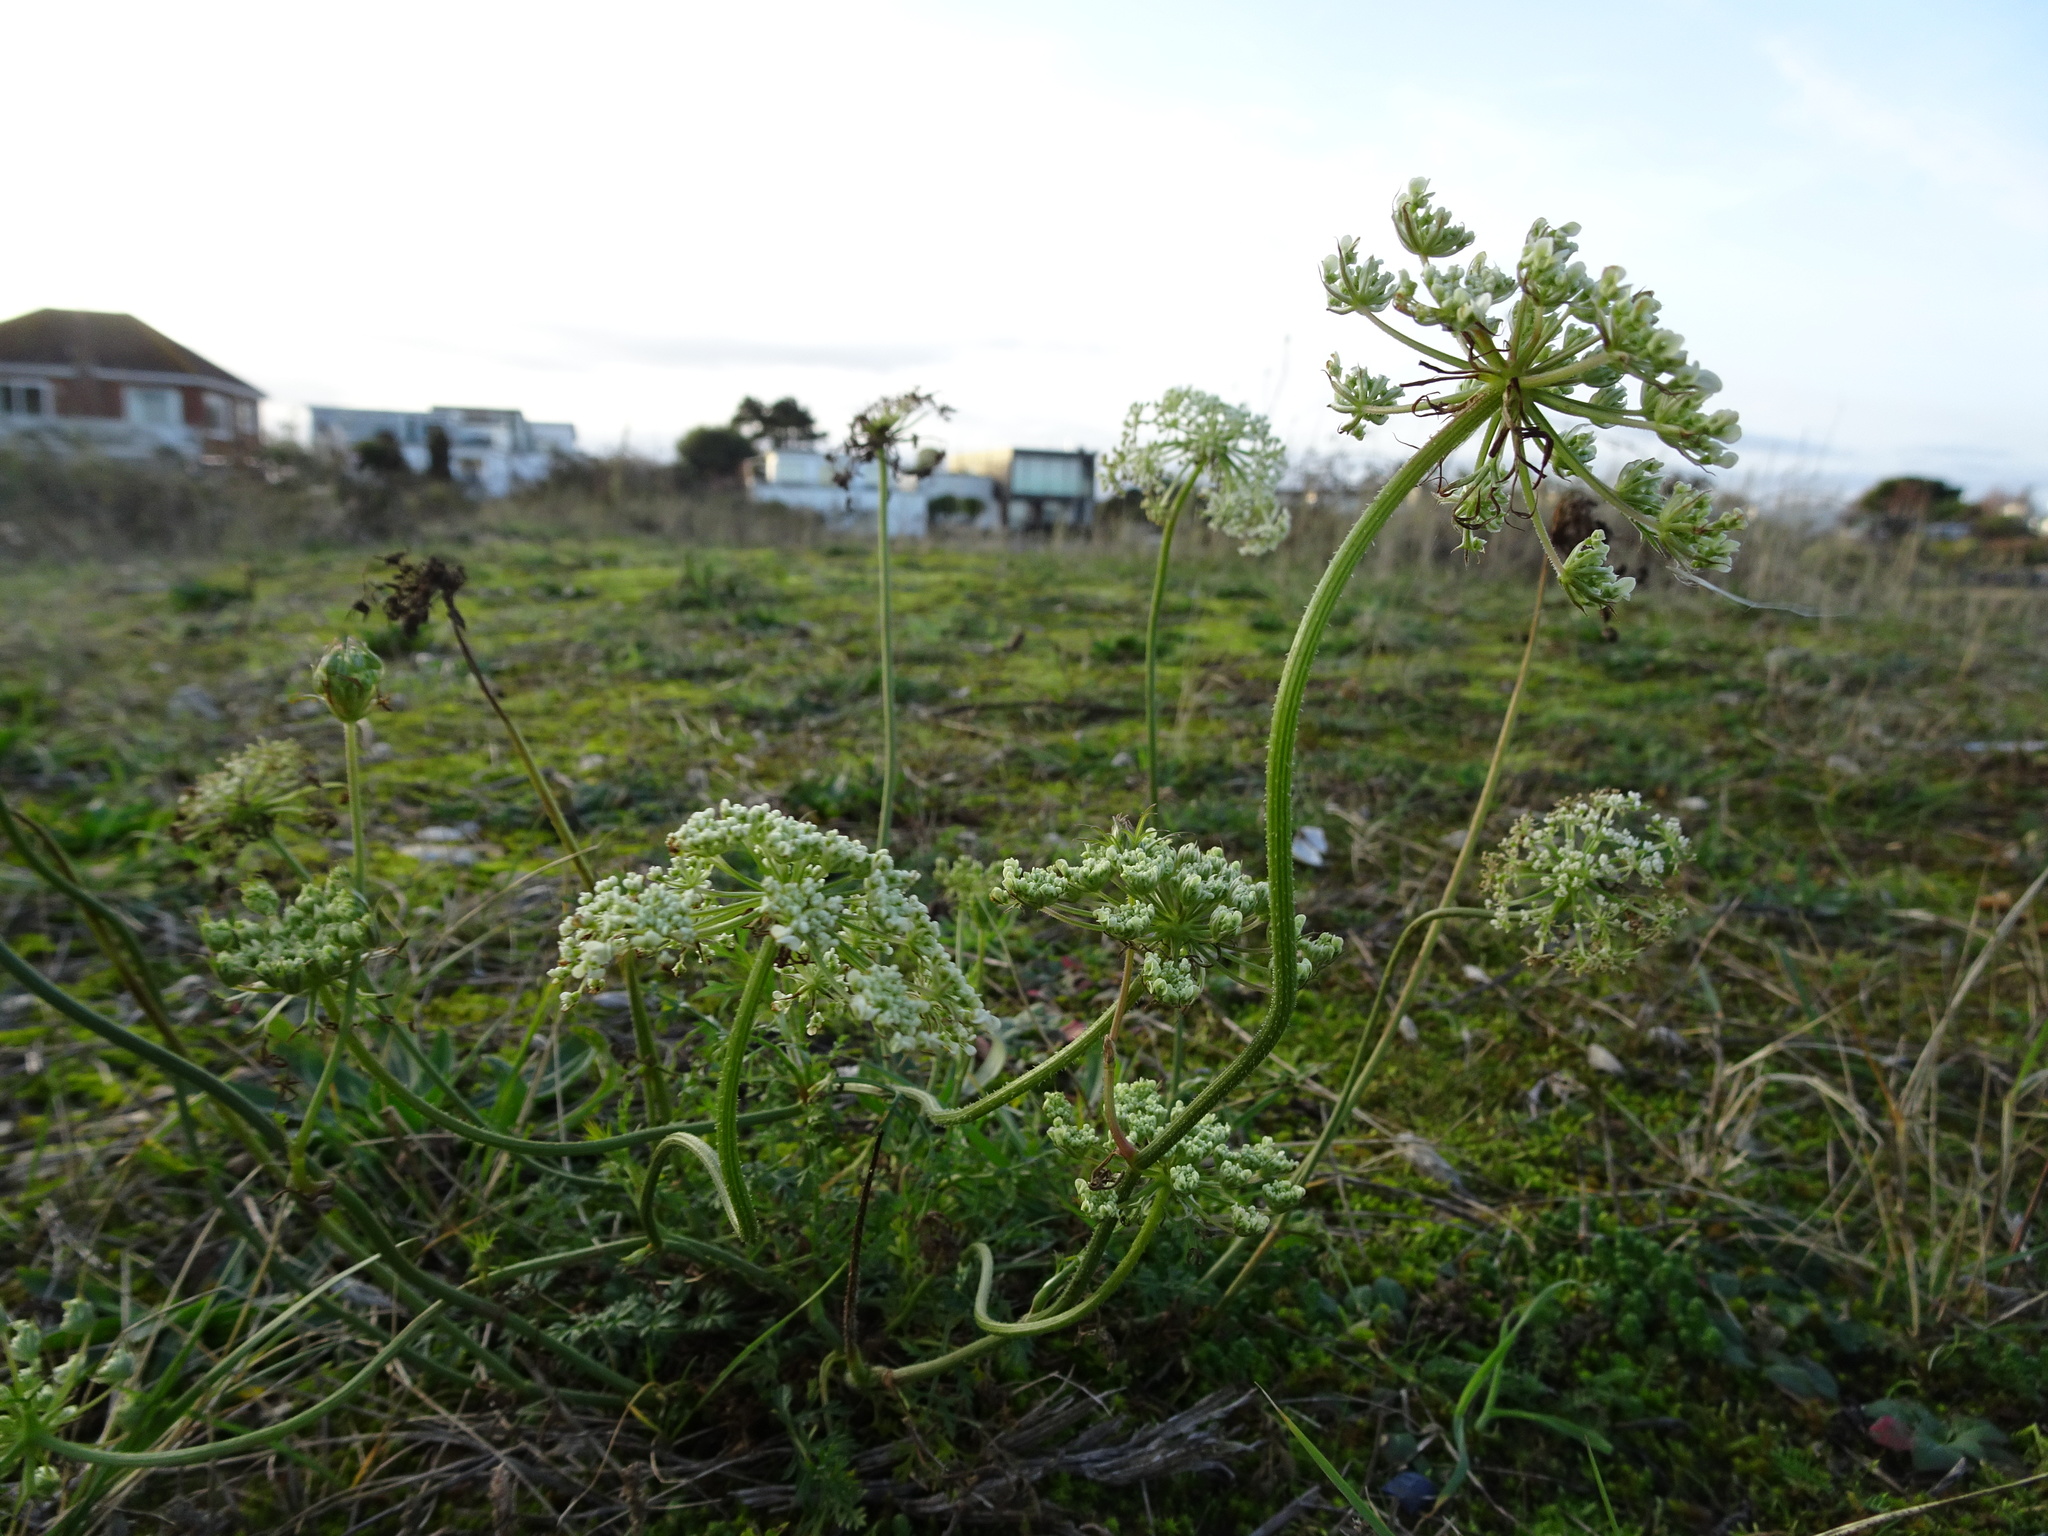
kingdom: Plantae
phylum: Tracheophyta
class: Magnoliopsida
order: Apiales
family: Apiaceae
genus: Daucus
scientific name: Daucus carota
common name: Wild carrot
